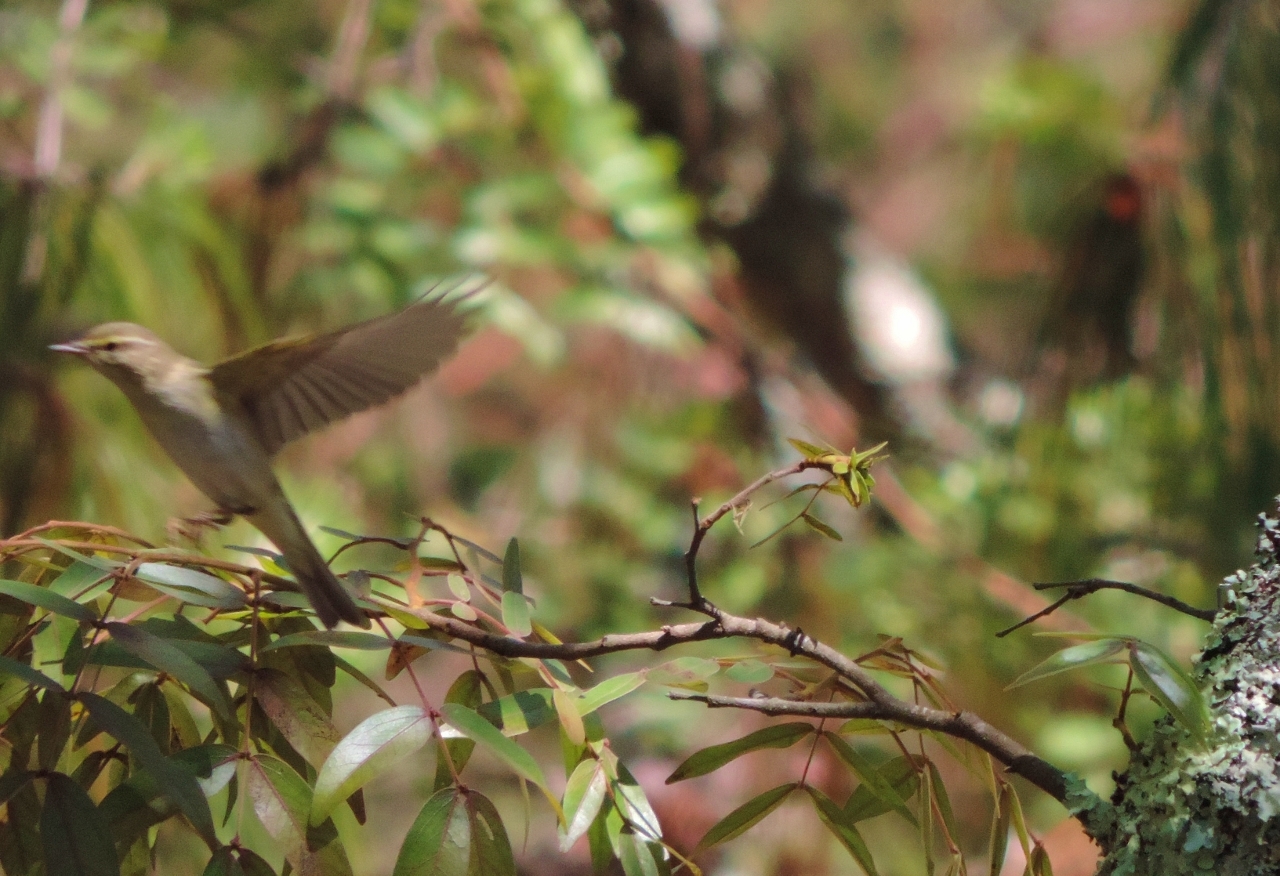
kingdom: Animalia
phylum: Chordata
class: Aves
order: Passeriformes
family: Phylloscopidae
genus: Phylloscopus
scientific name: Phylloscopus trochilus
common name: Willow warbler
